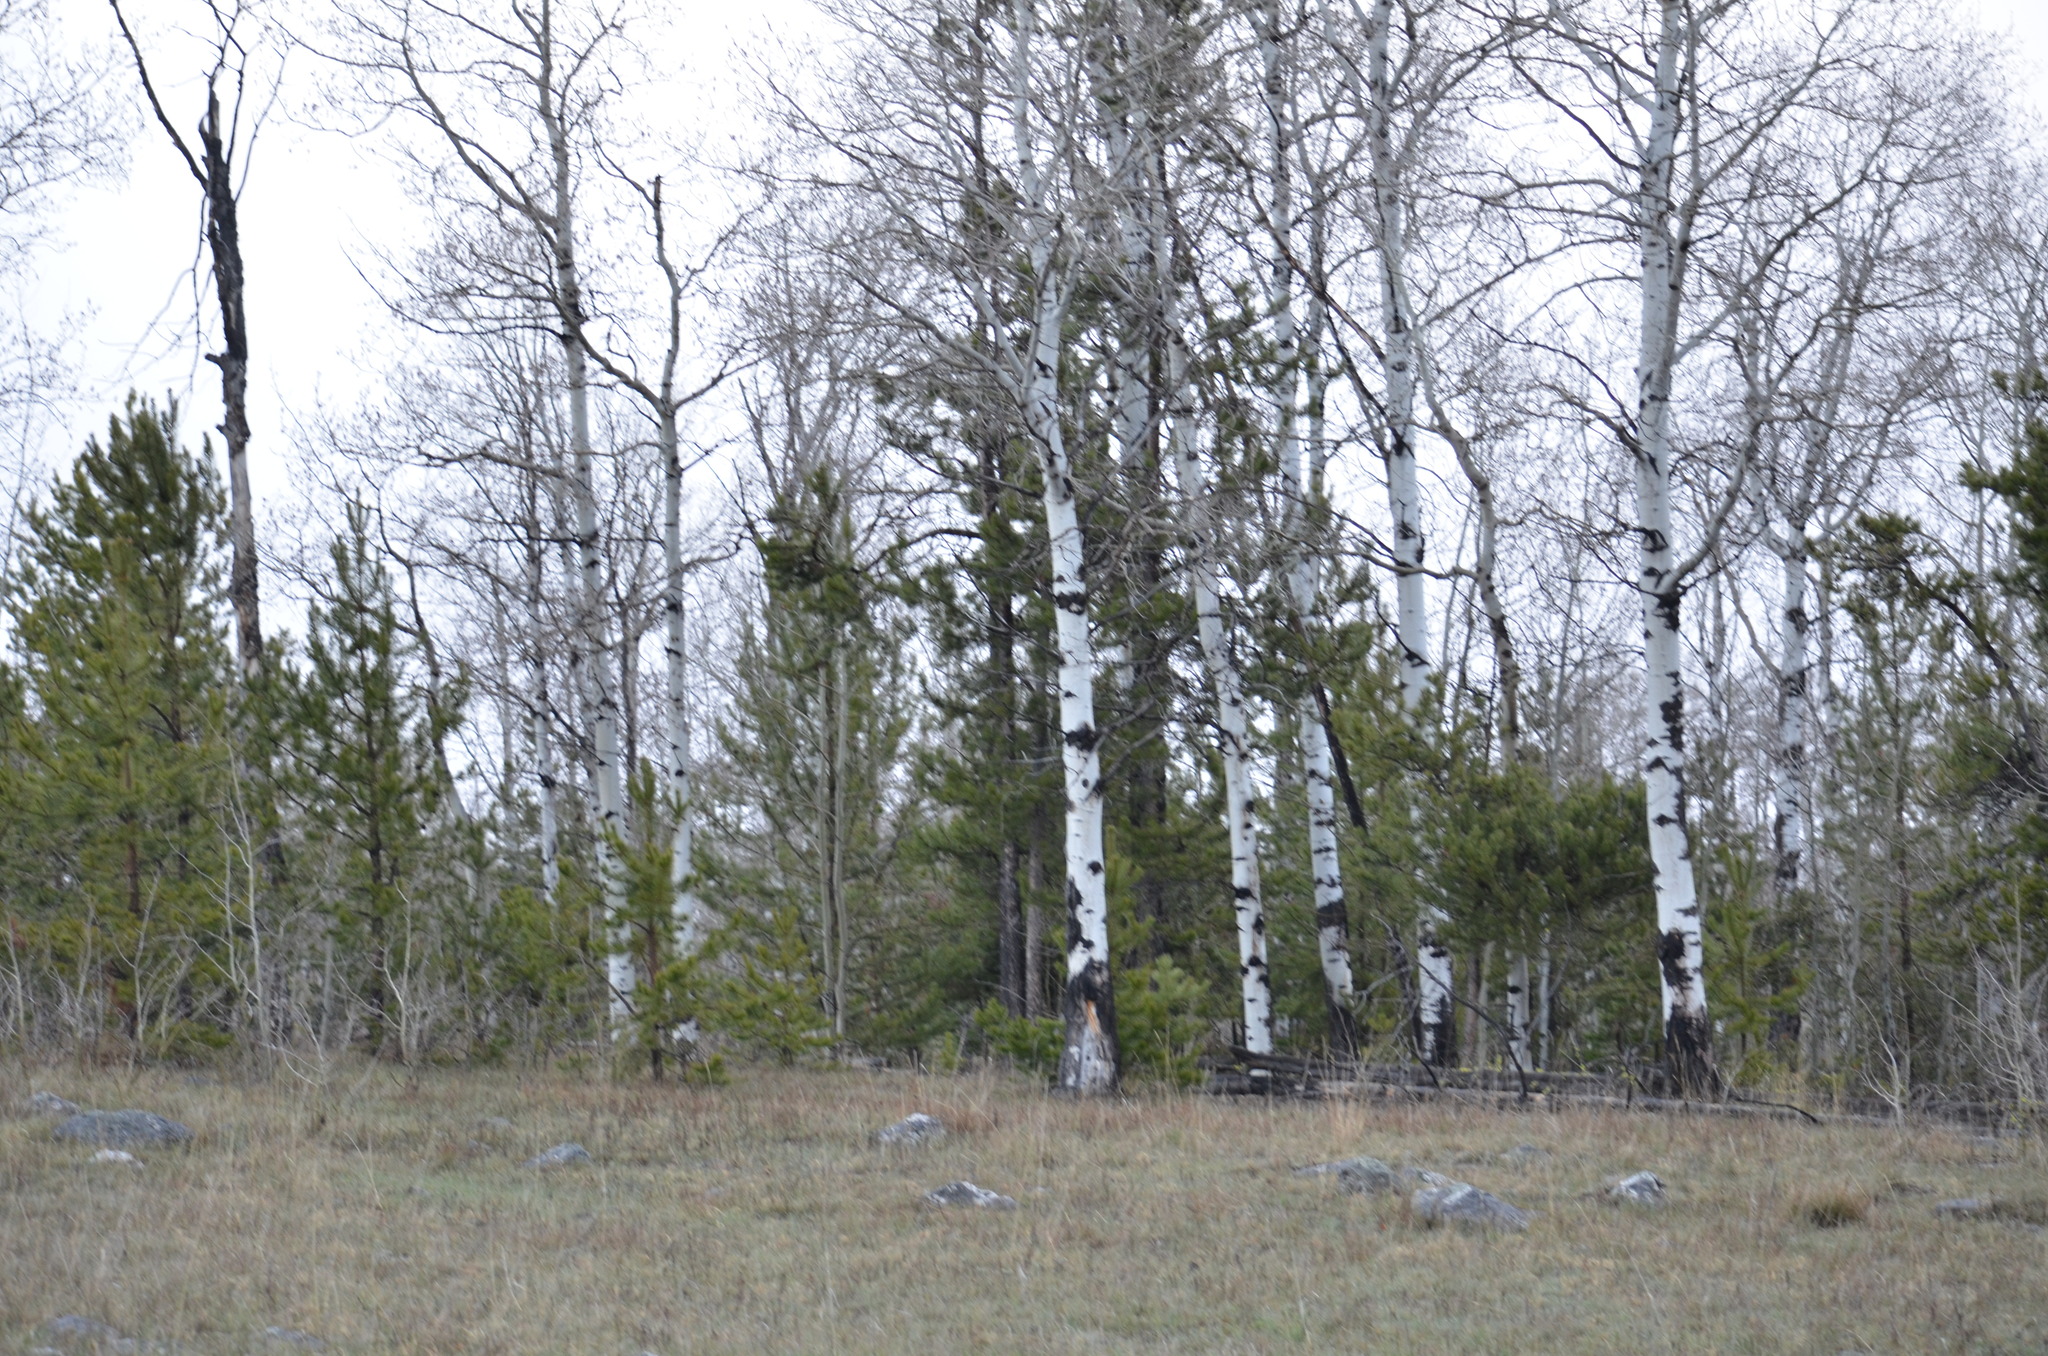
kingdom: Plantae
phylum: Tracheophyta
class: Magnoliopsida
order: Malpighiales
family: Salicaceae
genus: Populus
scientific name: Populus tremuloides
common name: Quaking aspen
